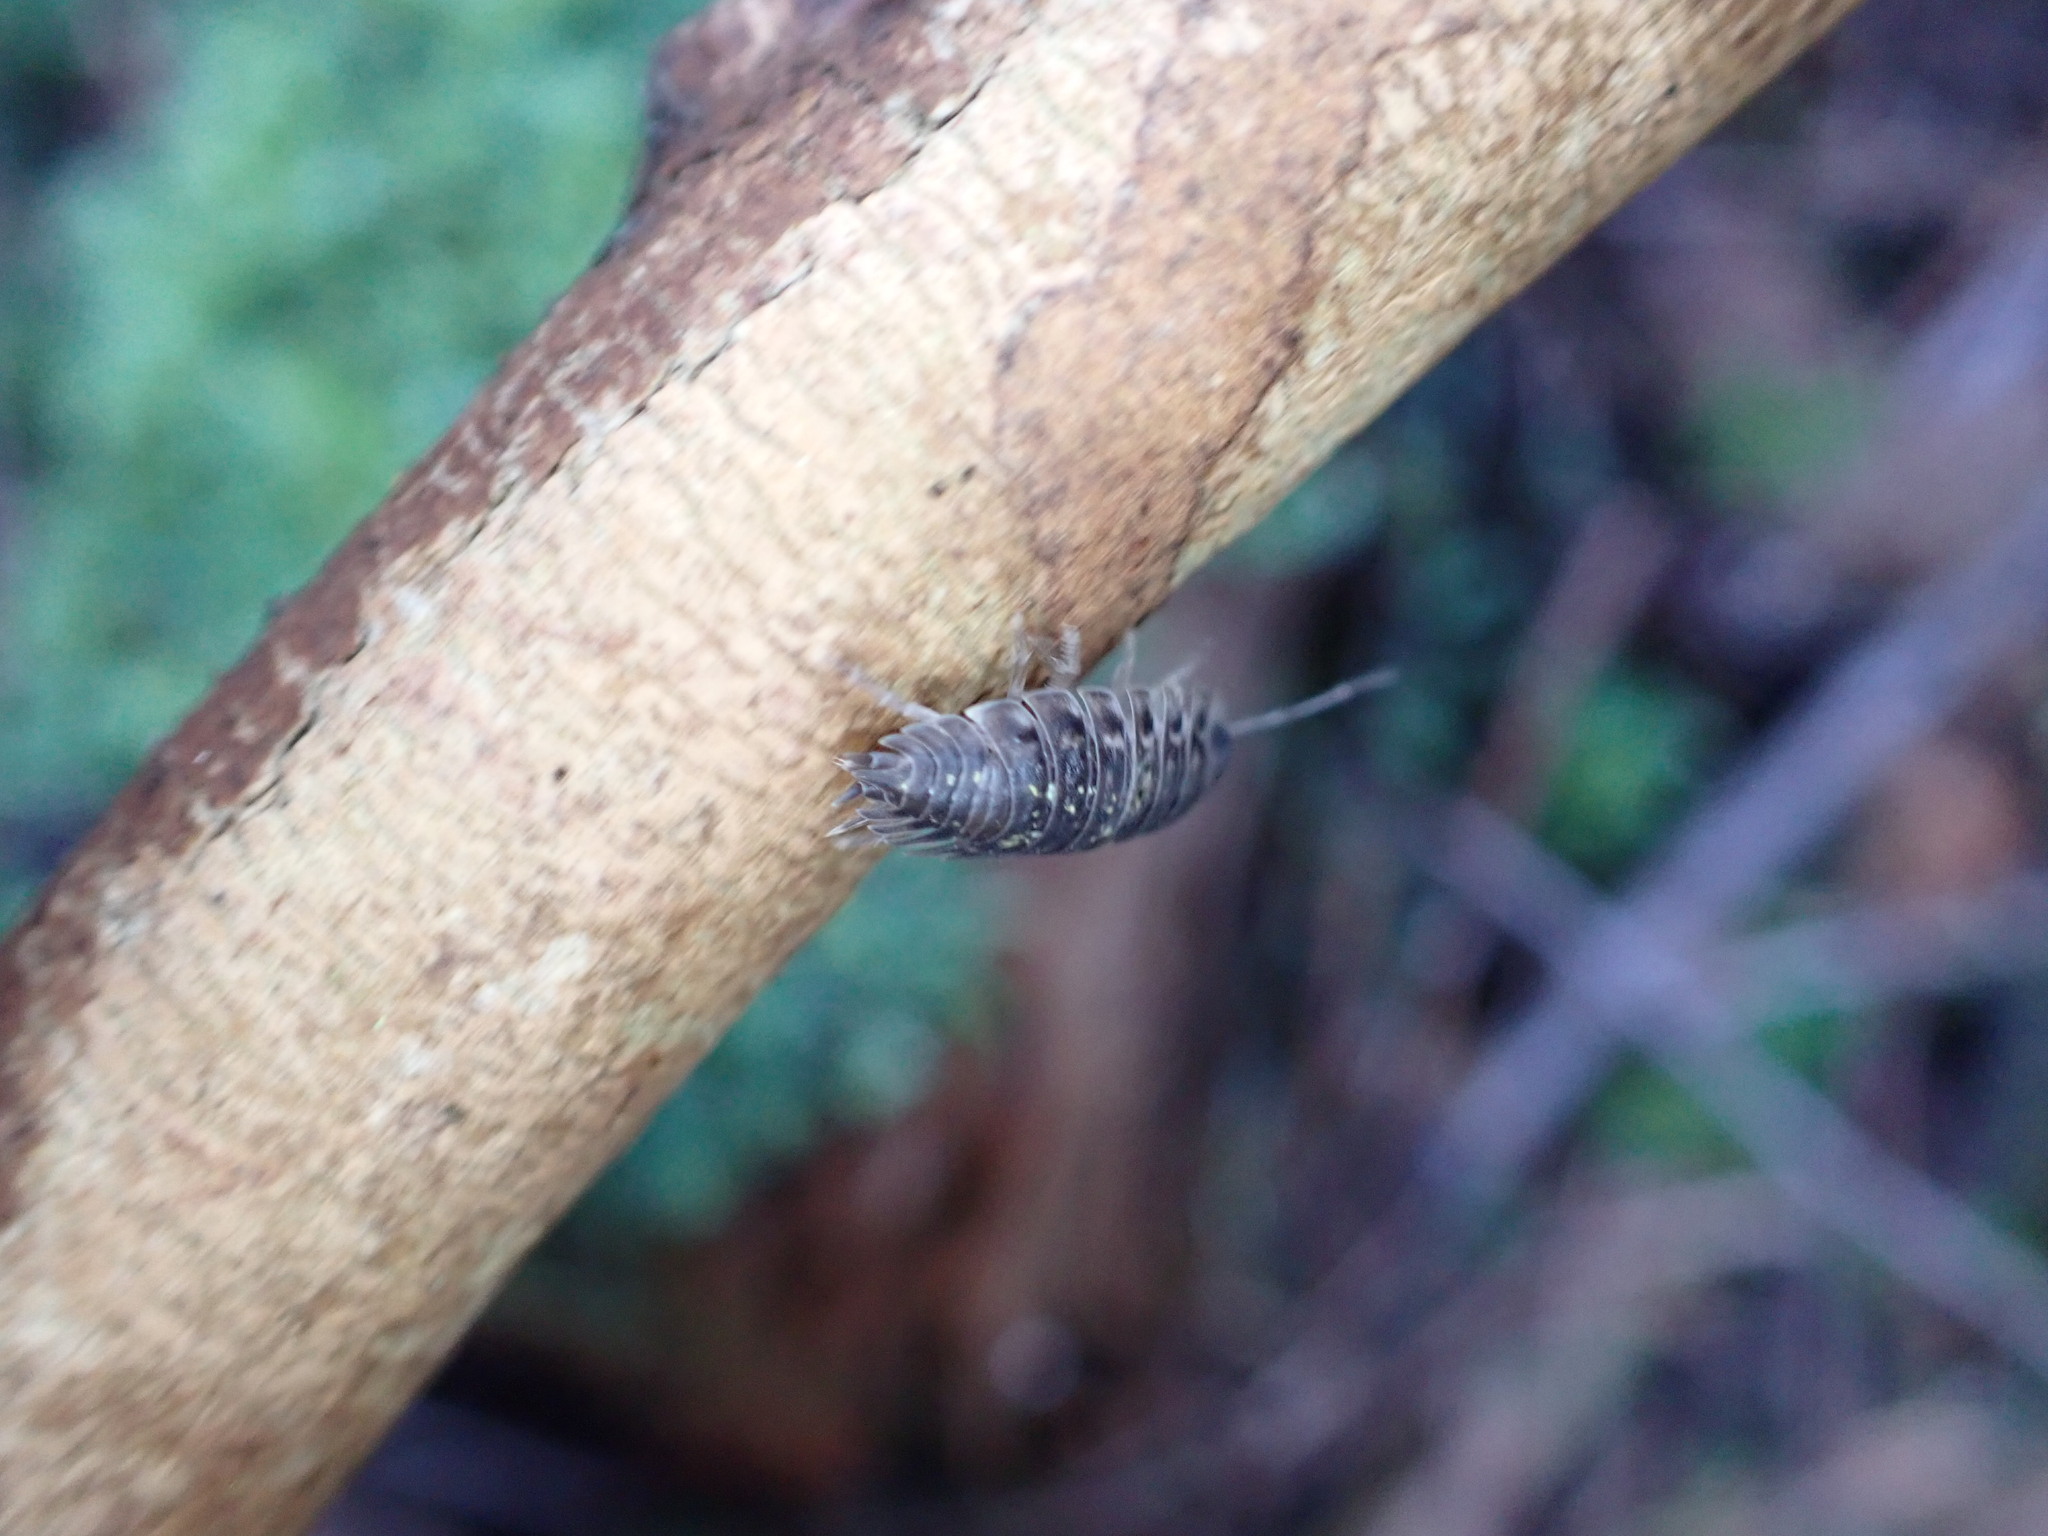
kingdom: Animalia
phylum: Arthropoda
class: Malacostraca
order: Isopoda
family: Oniscidae
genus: Oniscus
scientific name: Oniscus asellus
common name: Common shiny woodlouse
